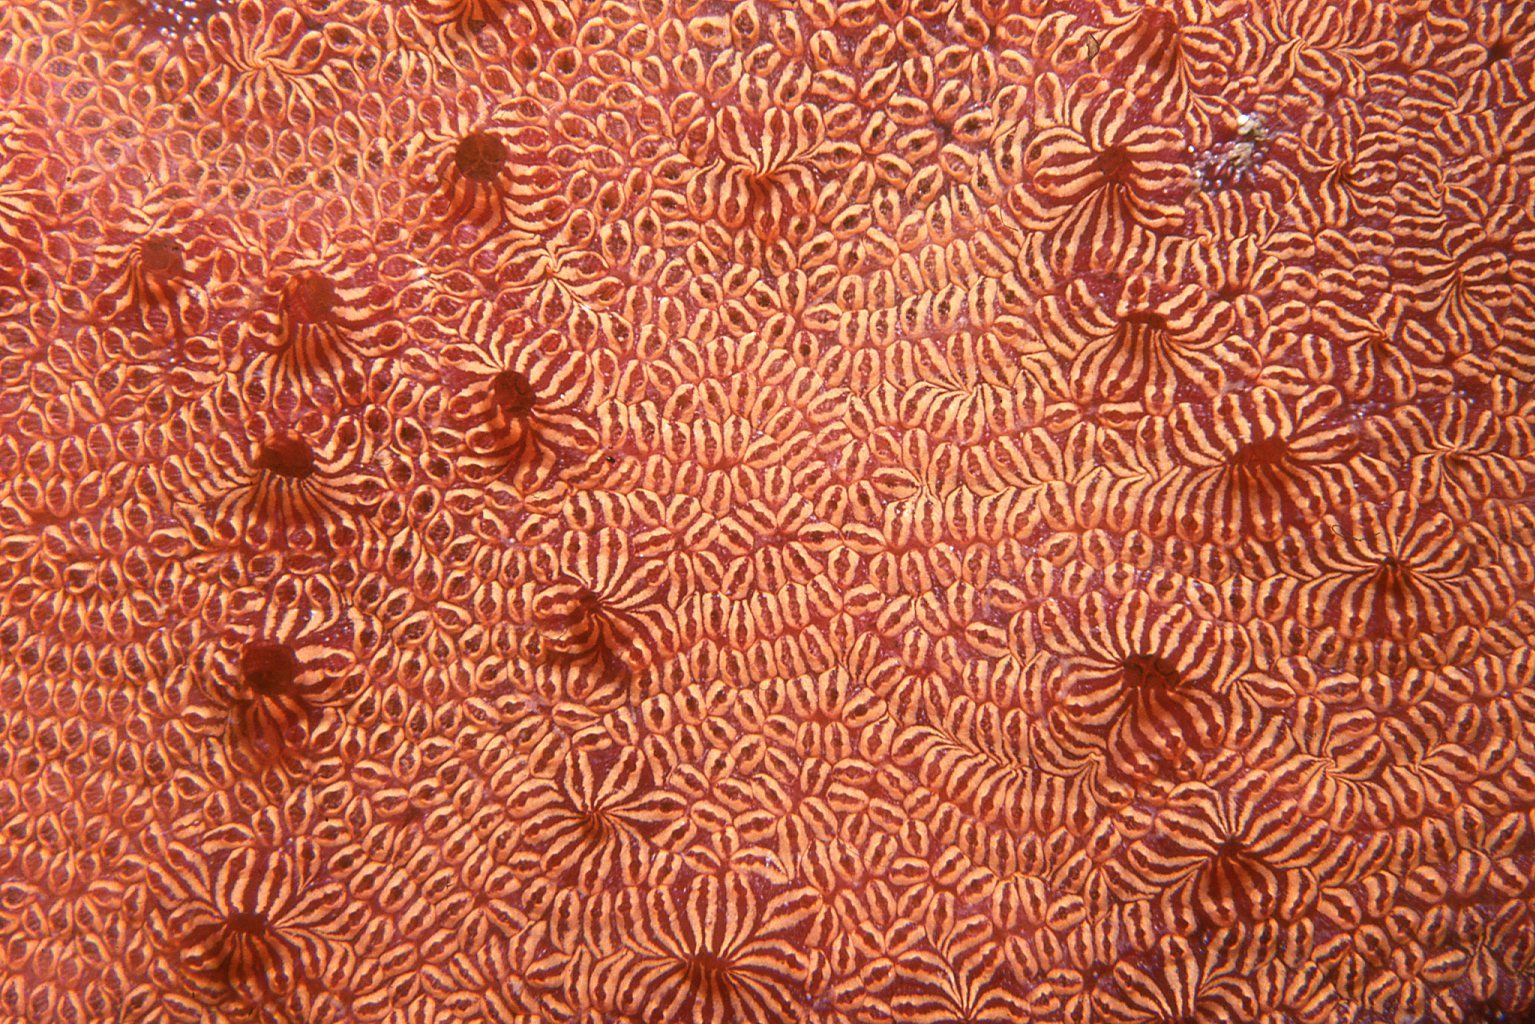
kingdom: Animalia
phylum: Chordata
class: Ascidiacea
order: Stolidobranchia
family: Styelidae
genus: Botrylloides
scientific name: Botrylloides leachii
